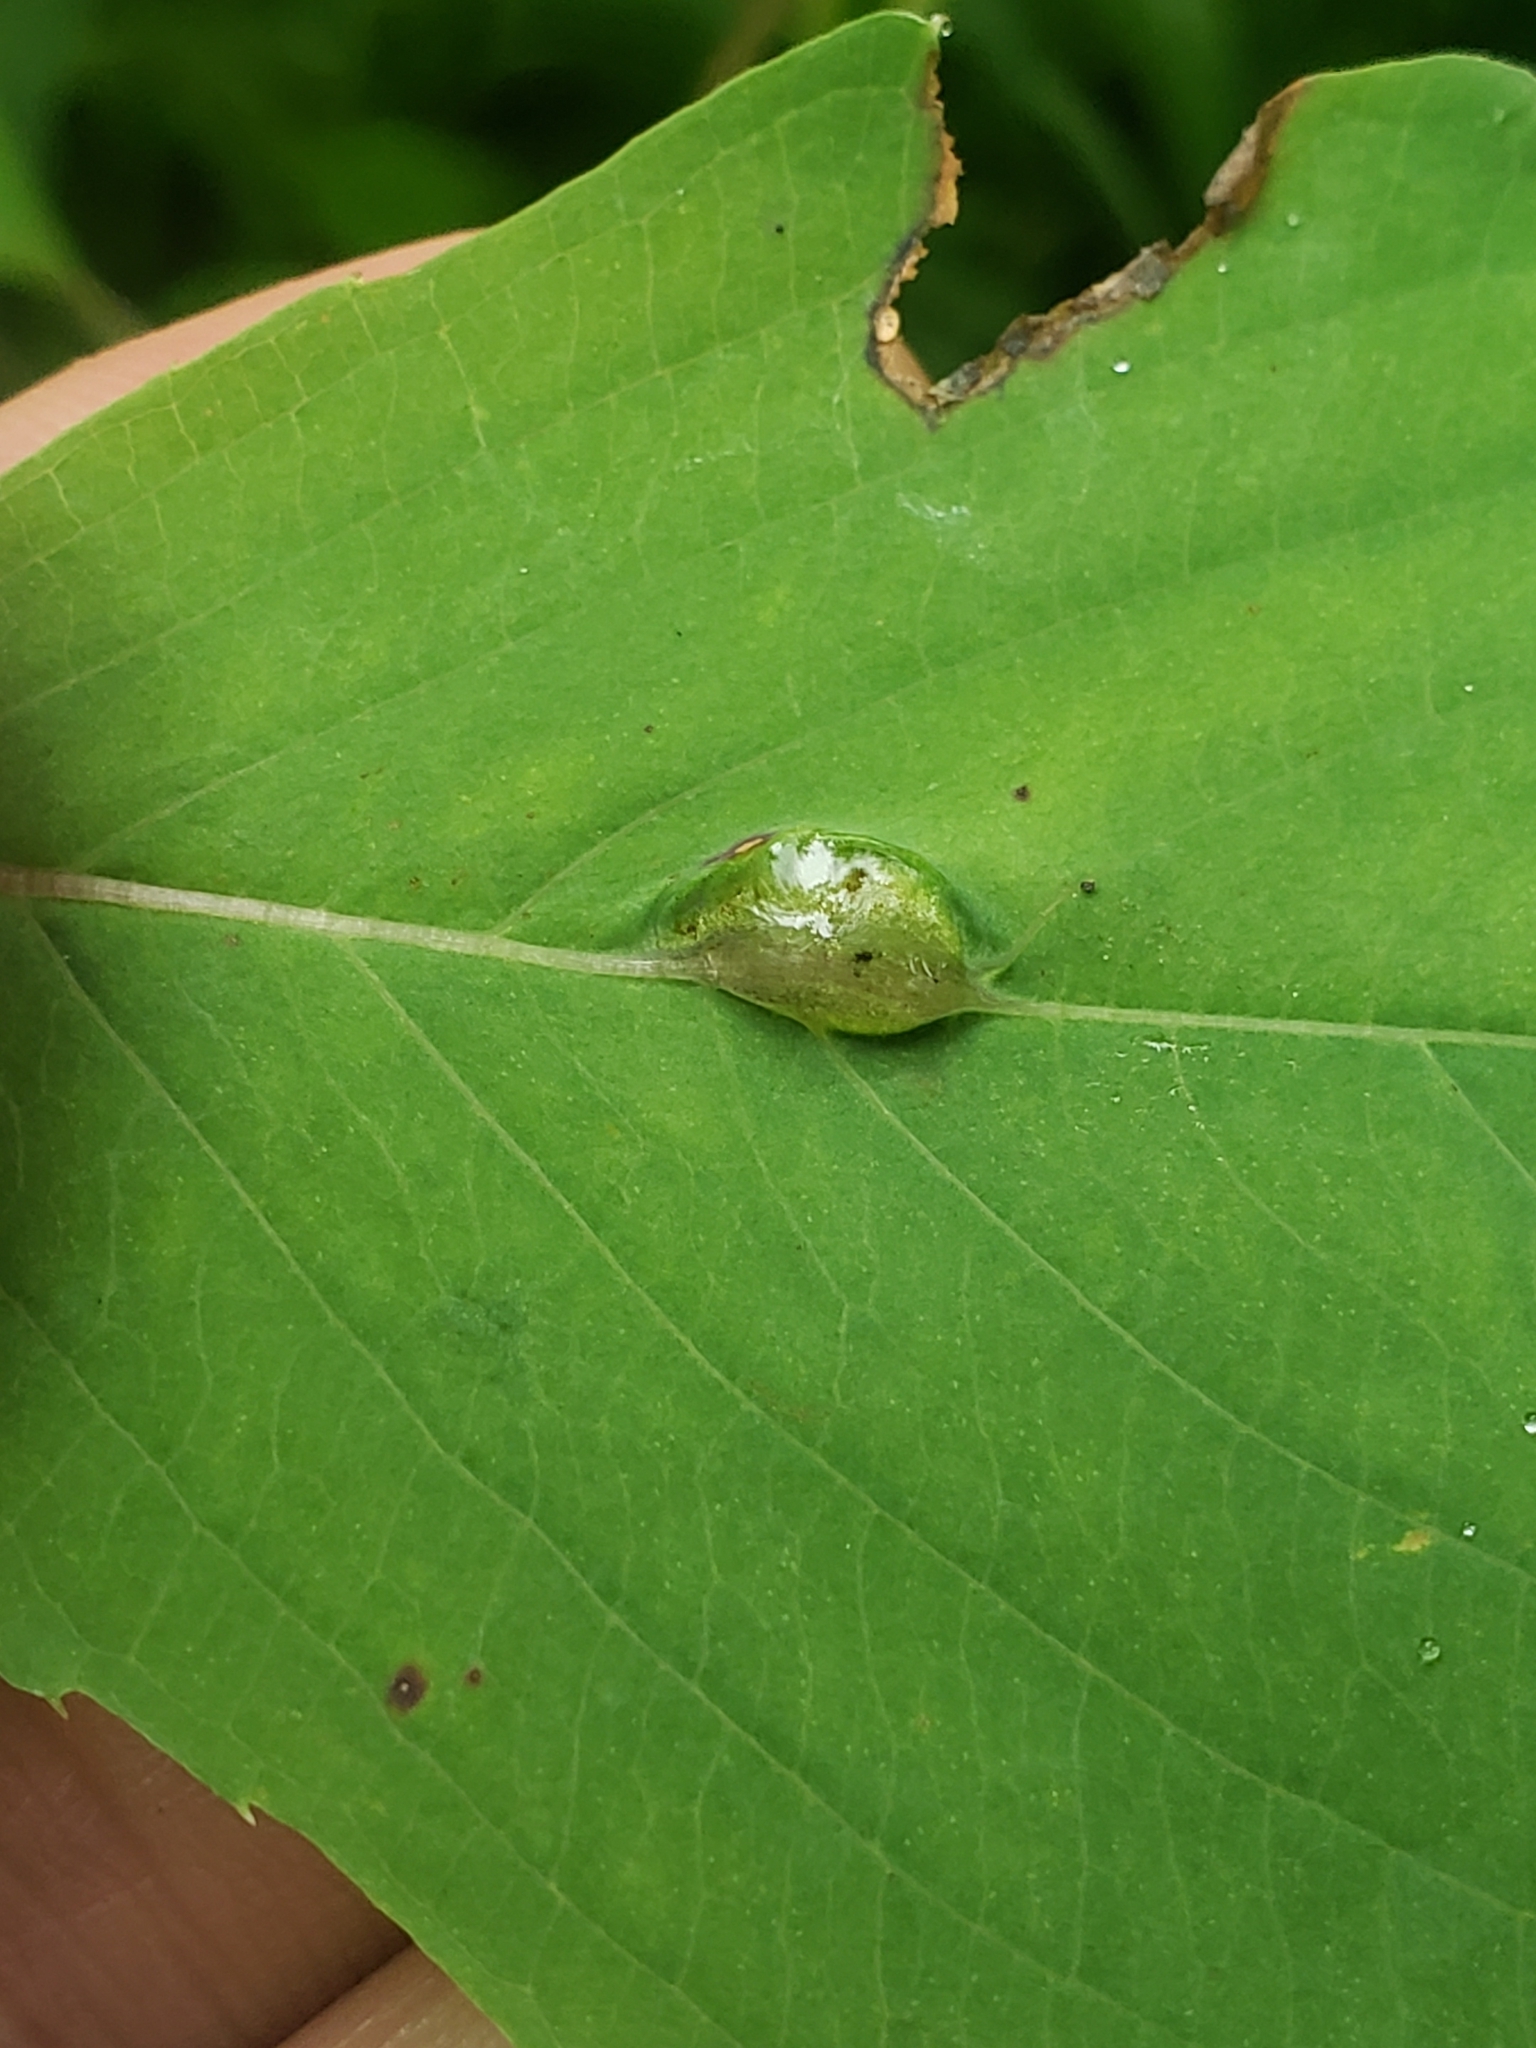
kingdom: Animalia
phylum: Arthropoda
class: Insecta
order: Diptera
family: Cecidomyiidae
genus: Neolasioptera
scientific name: Neolasioptera impatientifolia
